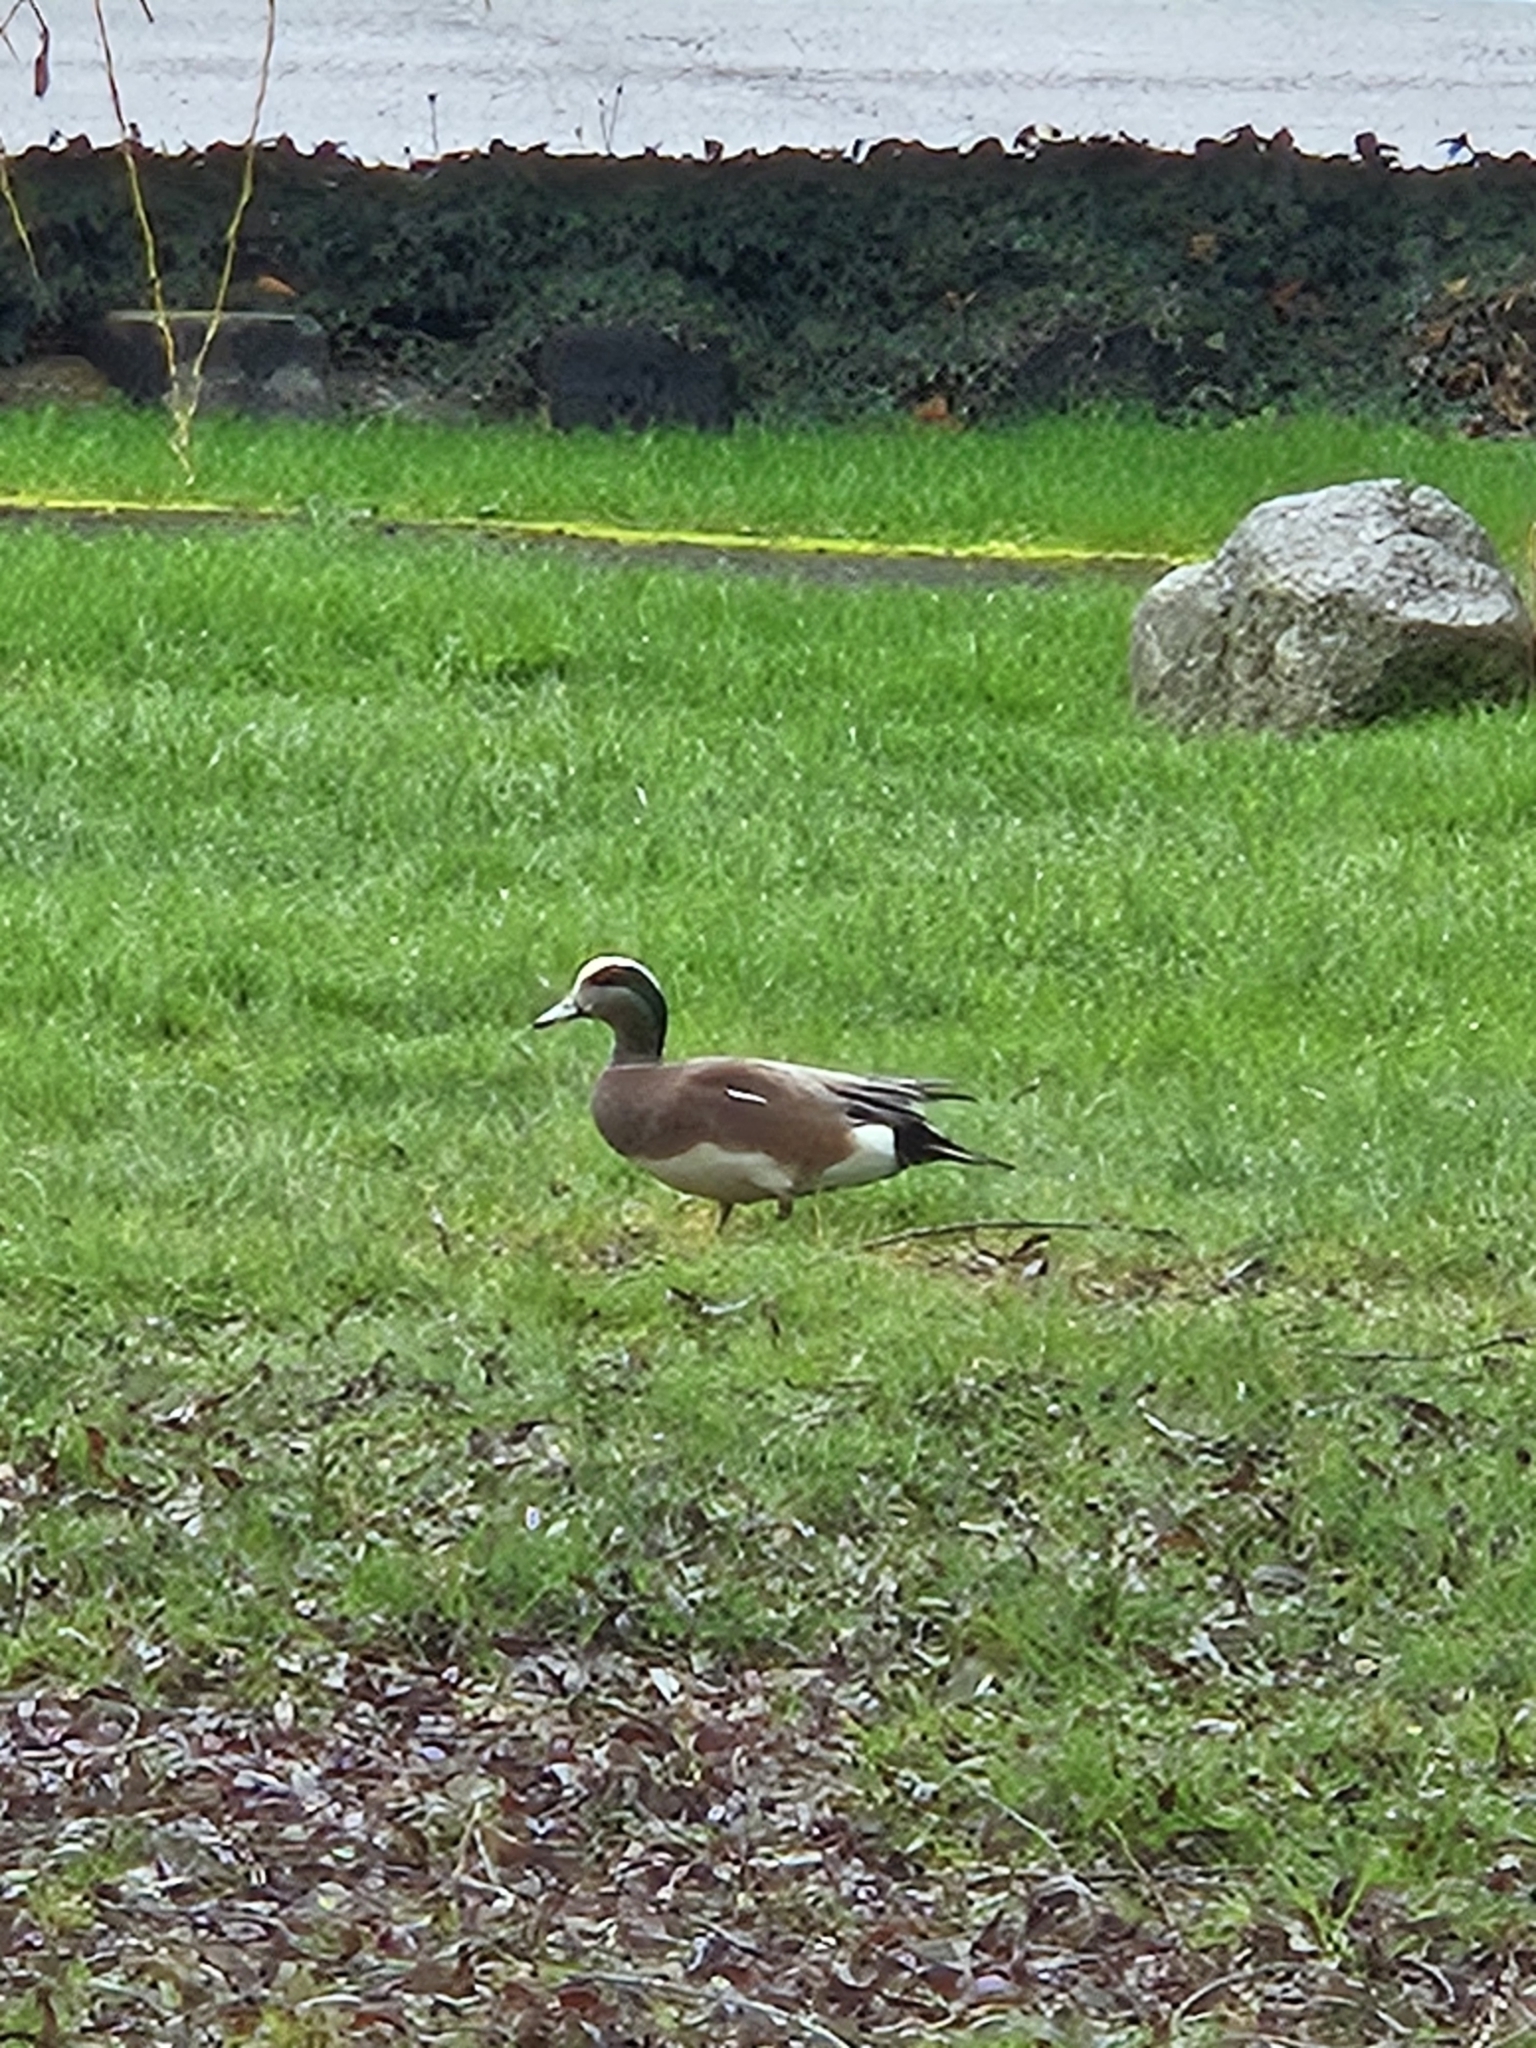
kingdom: Animalia
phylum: Chordata
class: Aves
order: Anseriformes
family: Anatidae
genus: Mareca
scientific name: Mareca americana
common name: American wigeon
